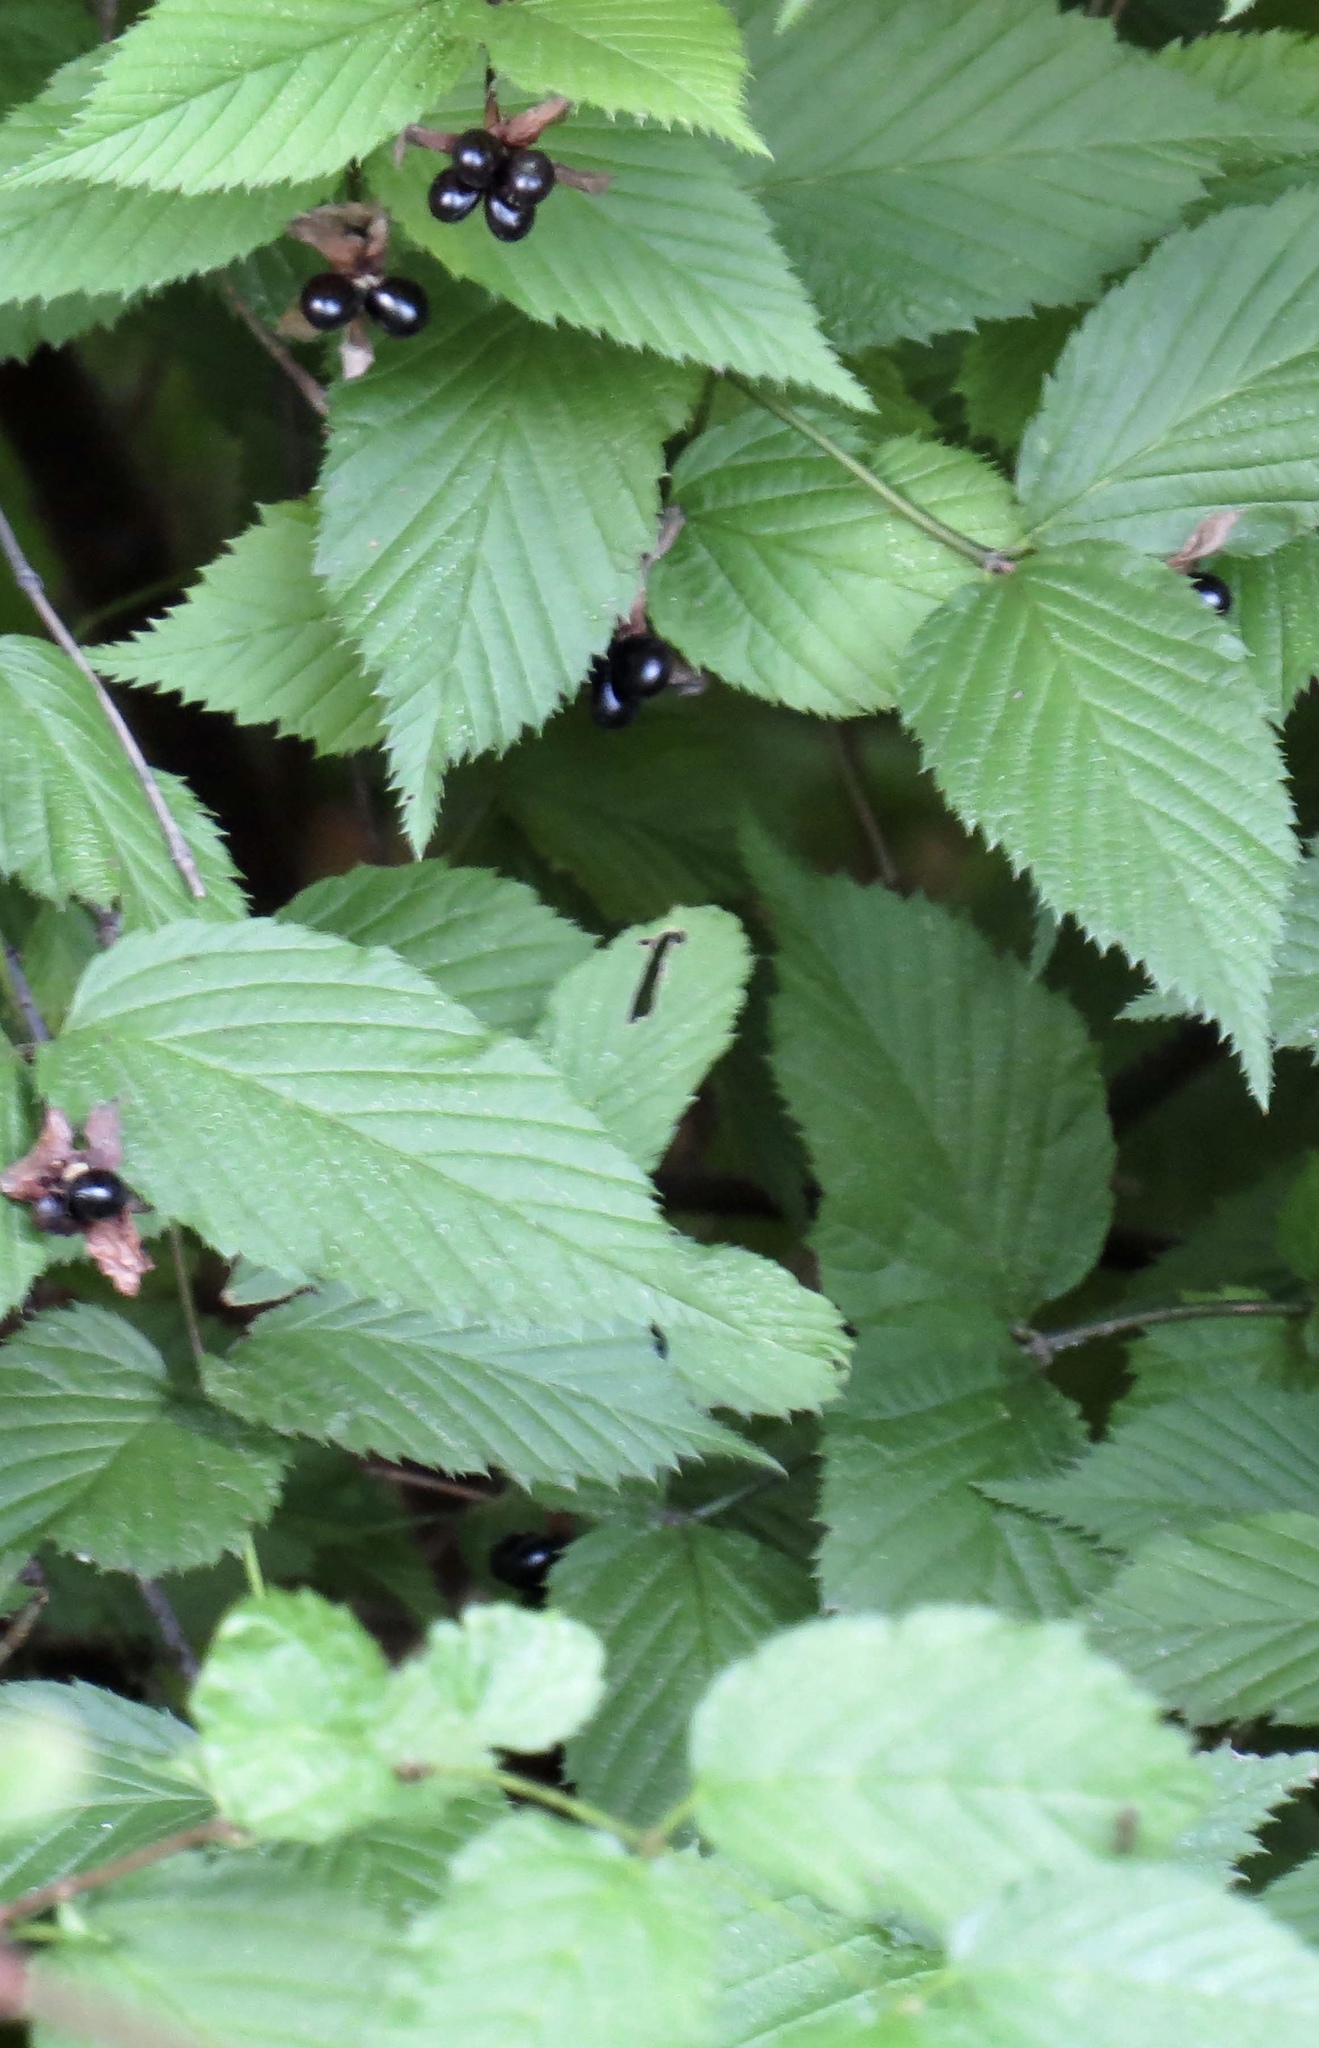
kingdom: Plantae
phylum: Tracheophyta
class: Magnoliopsida
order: Rosales
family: Rosaceae
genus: Rhodotypos
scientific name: Rhodotypos scandens
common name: Jetbead
